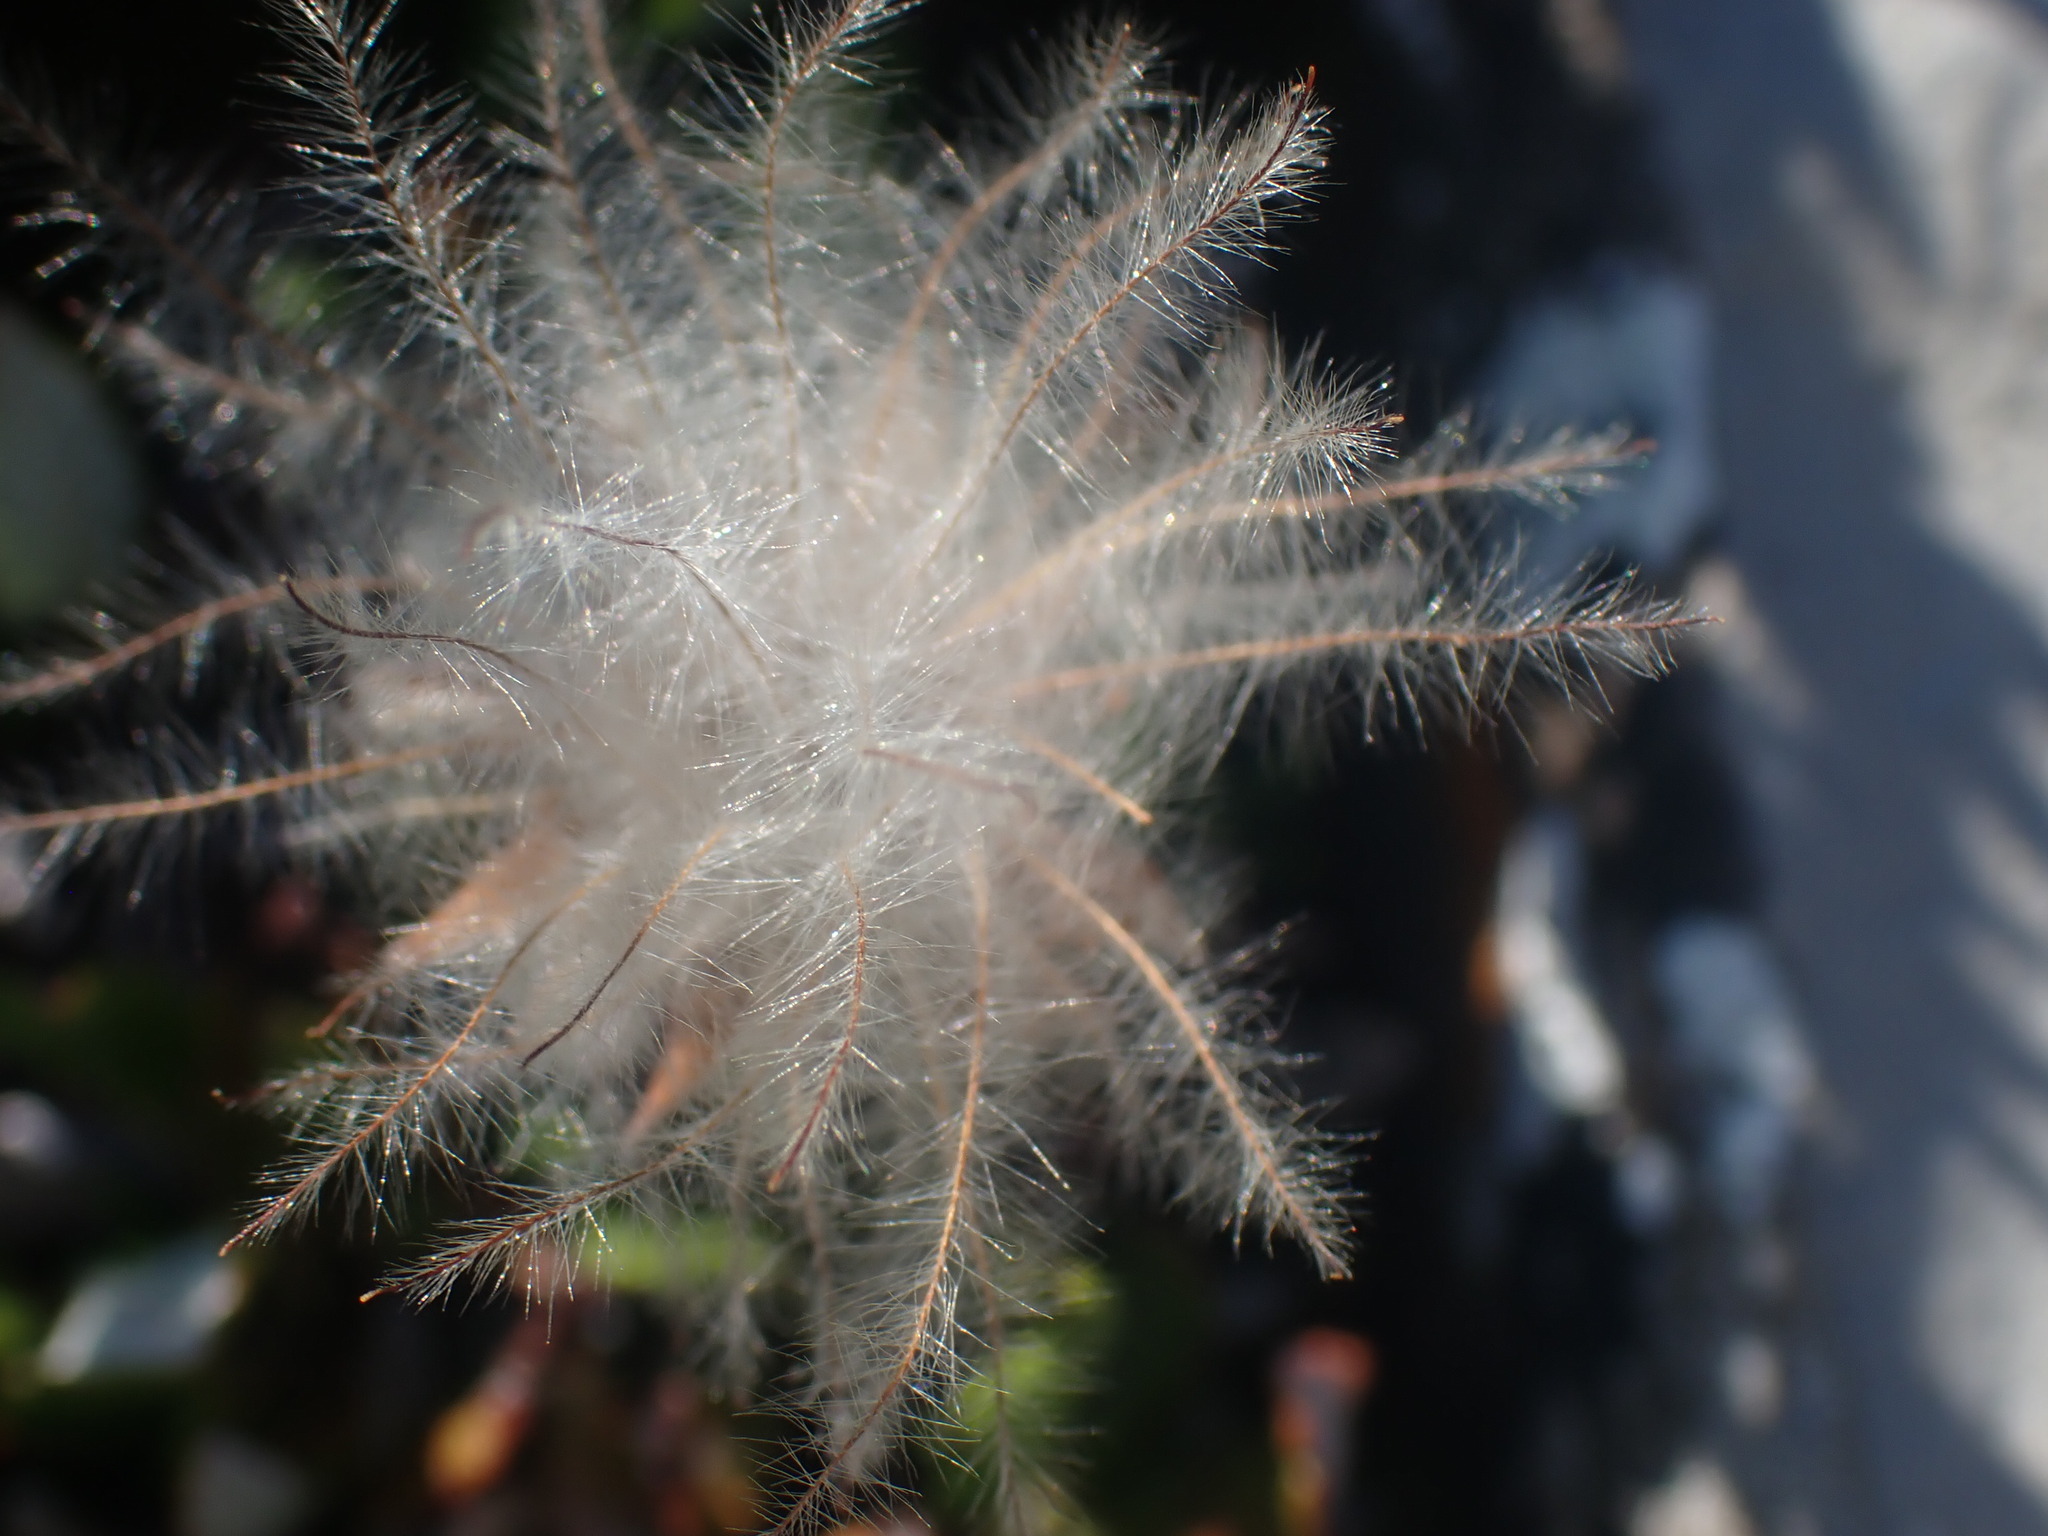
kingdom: Plantae
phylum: Tracheophyta
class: Magnoliopsida
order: Rosales
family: Rosaceae
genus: Dryas
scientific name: Dryas octopetala
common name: Eight-petal mountain-avens
